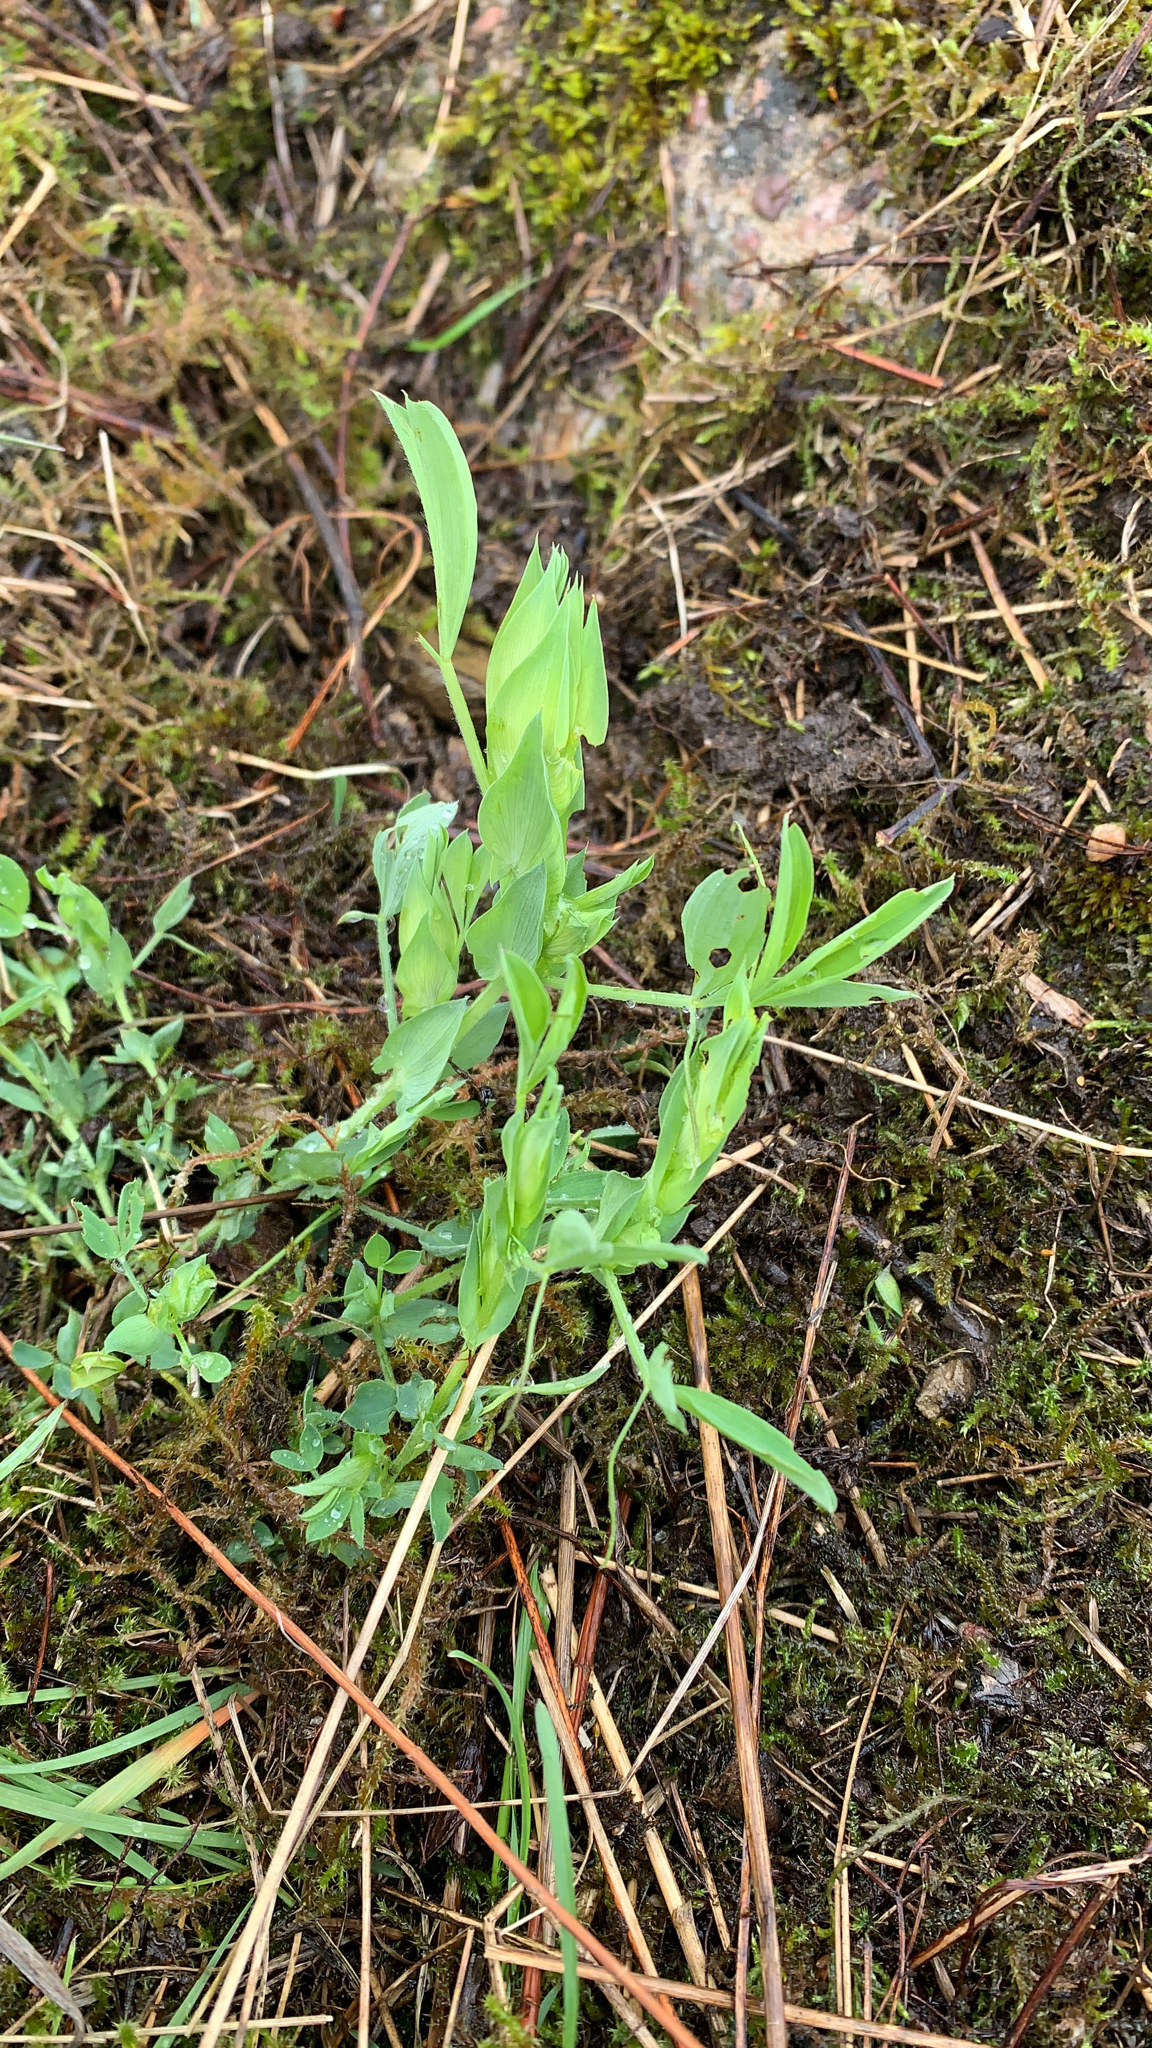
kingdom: Plantae
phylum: Tracheophyta
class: Magnoliopsida
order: Fabales
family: Fabaceae
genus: Lathyrus
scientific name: Lathyrus pratensis
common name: Meadow vetchling
